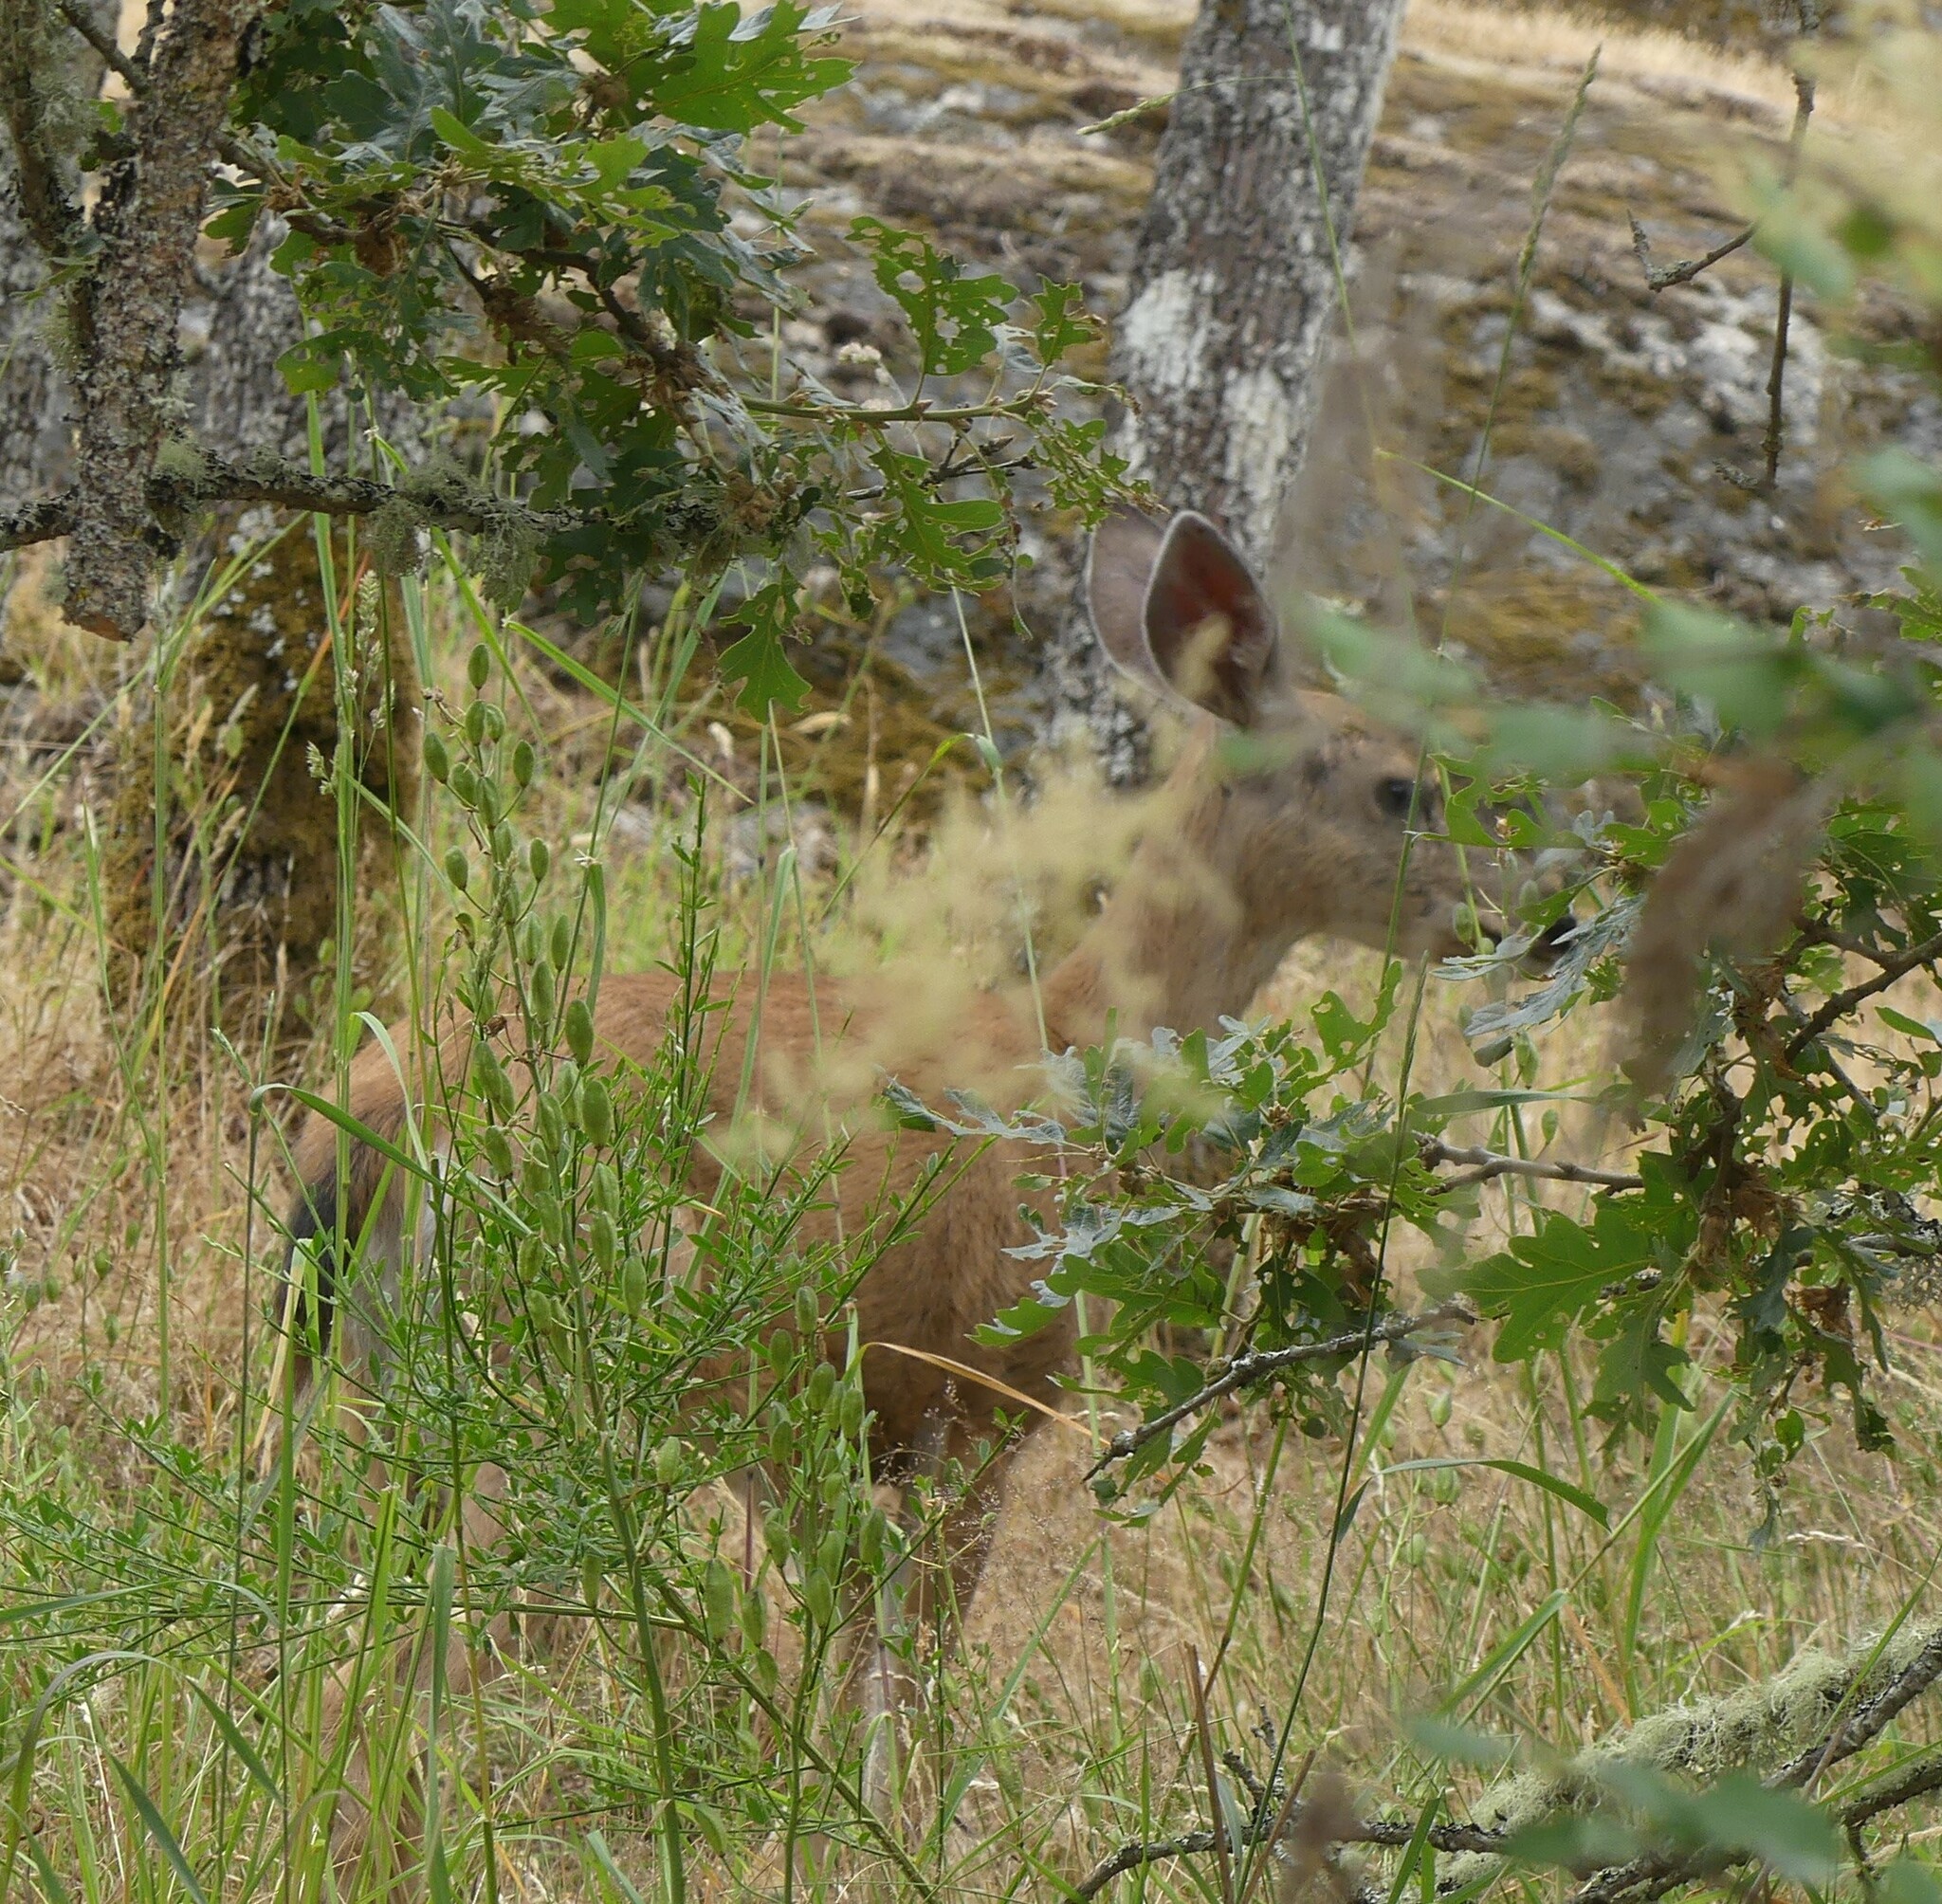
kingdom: Animalia
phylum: Chordata
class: Mammalia
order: Artiodactyla
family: Cervidae
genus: Odocoileus
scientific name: Odocoileus hemionus
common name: Mule deer
